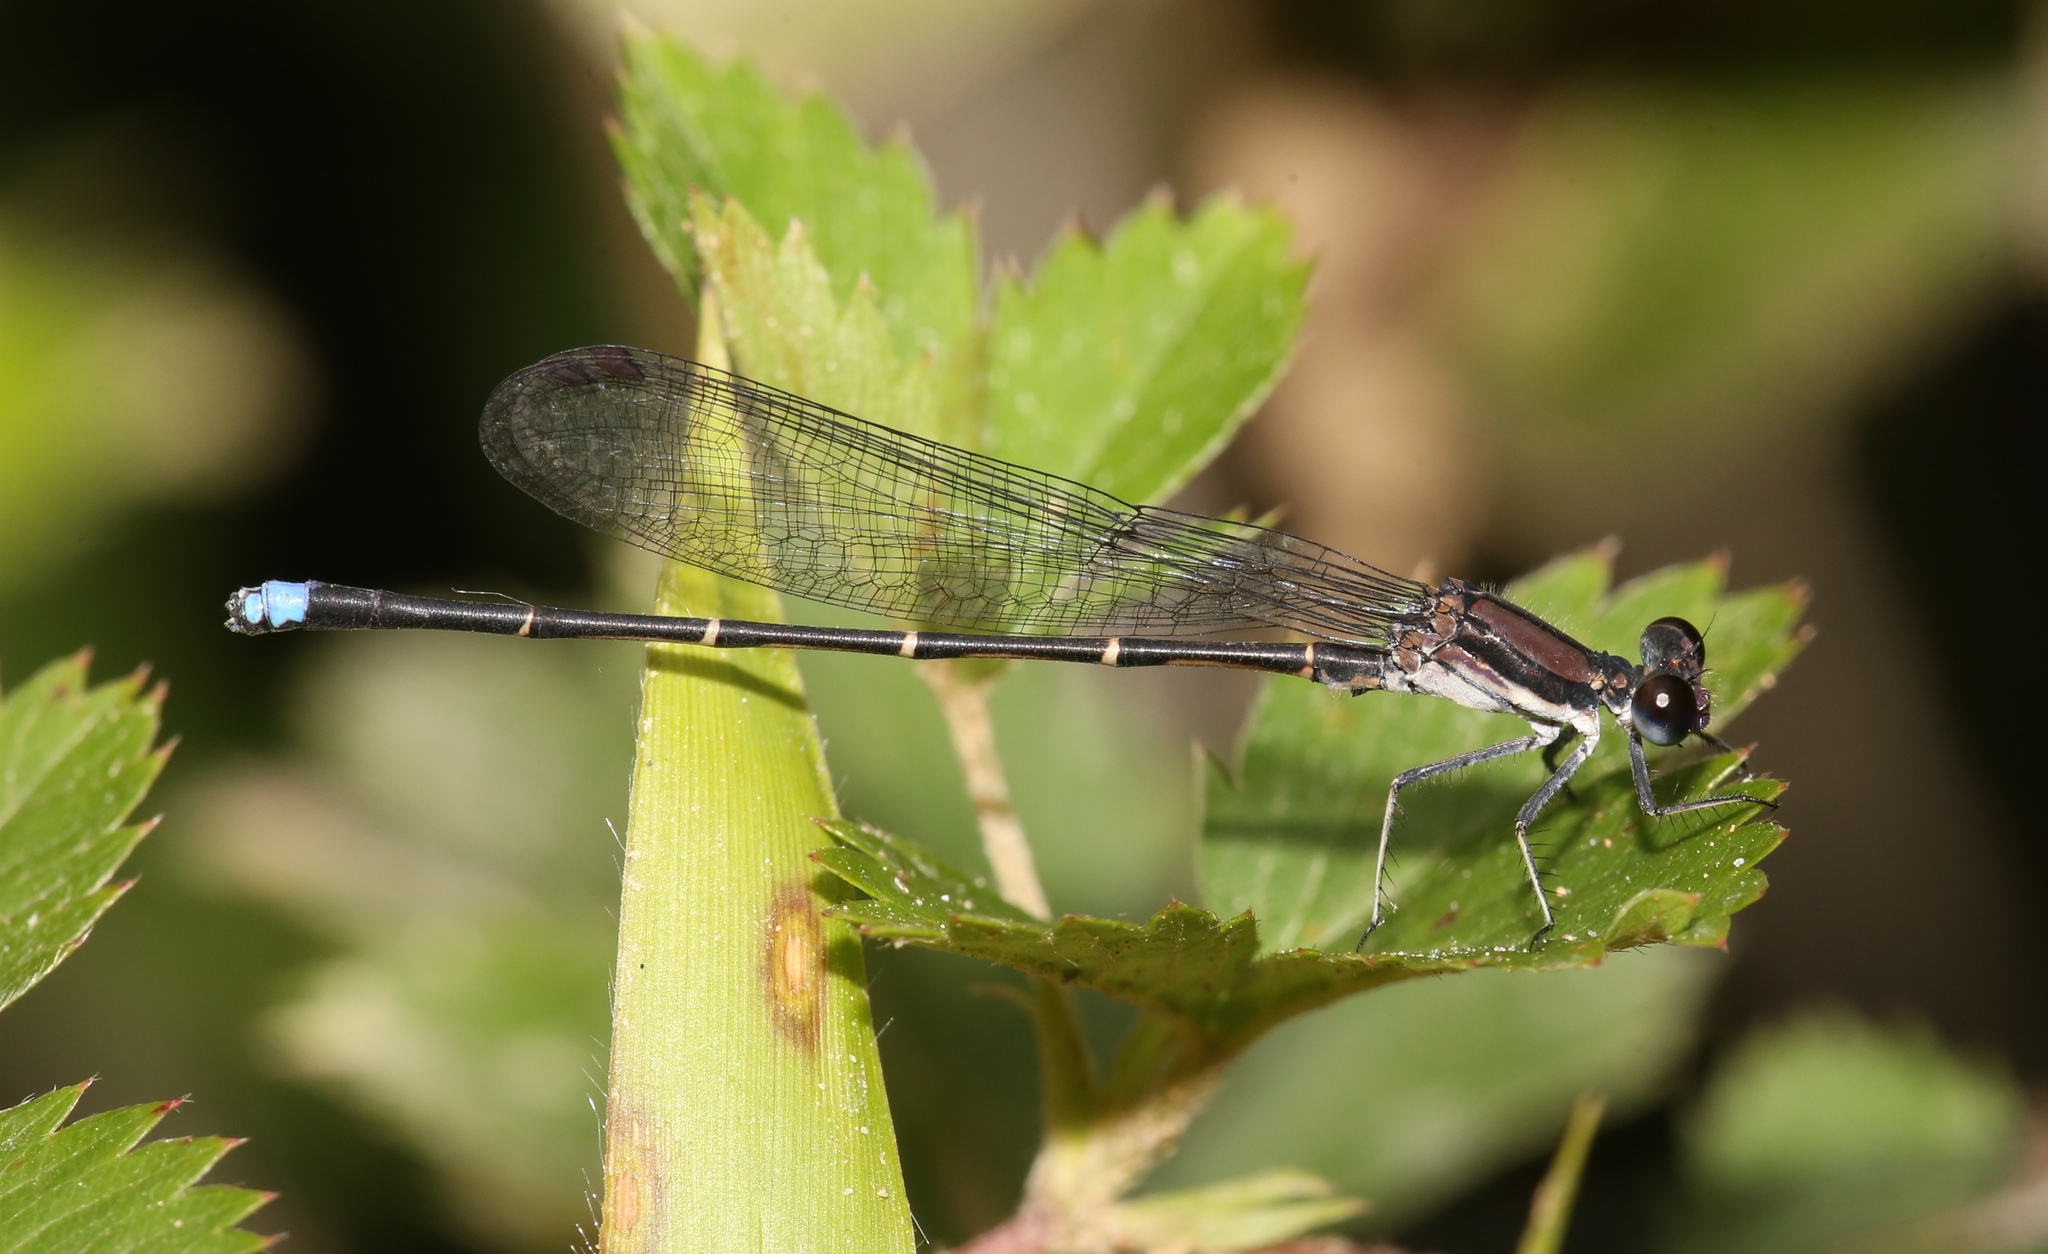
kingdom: Animalia
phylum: Arthropoda
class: Insecta
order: Odonata
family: Coenagrionidae
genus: Argia
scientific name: Argia tibialis
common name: Blue-tipped dancer
